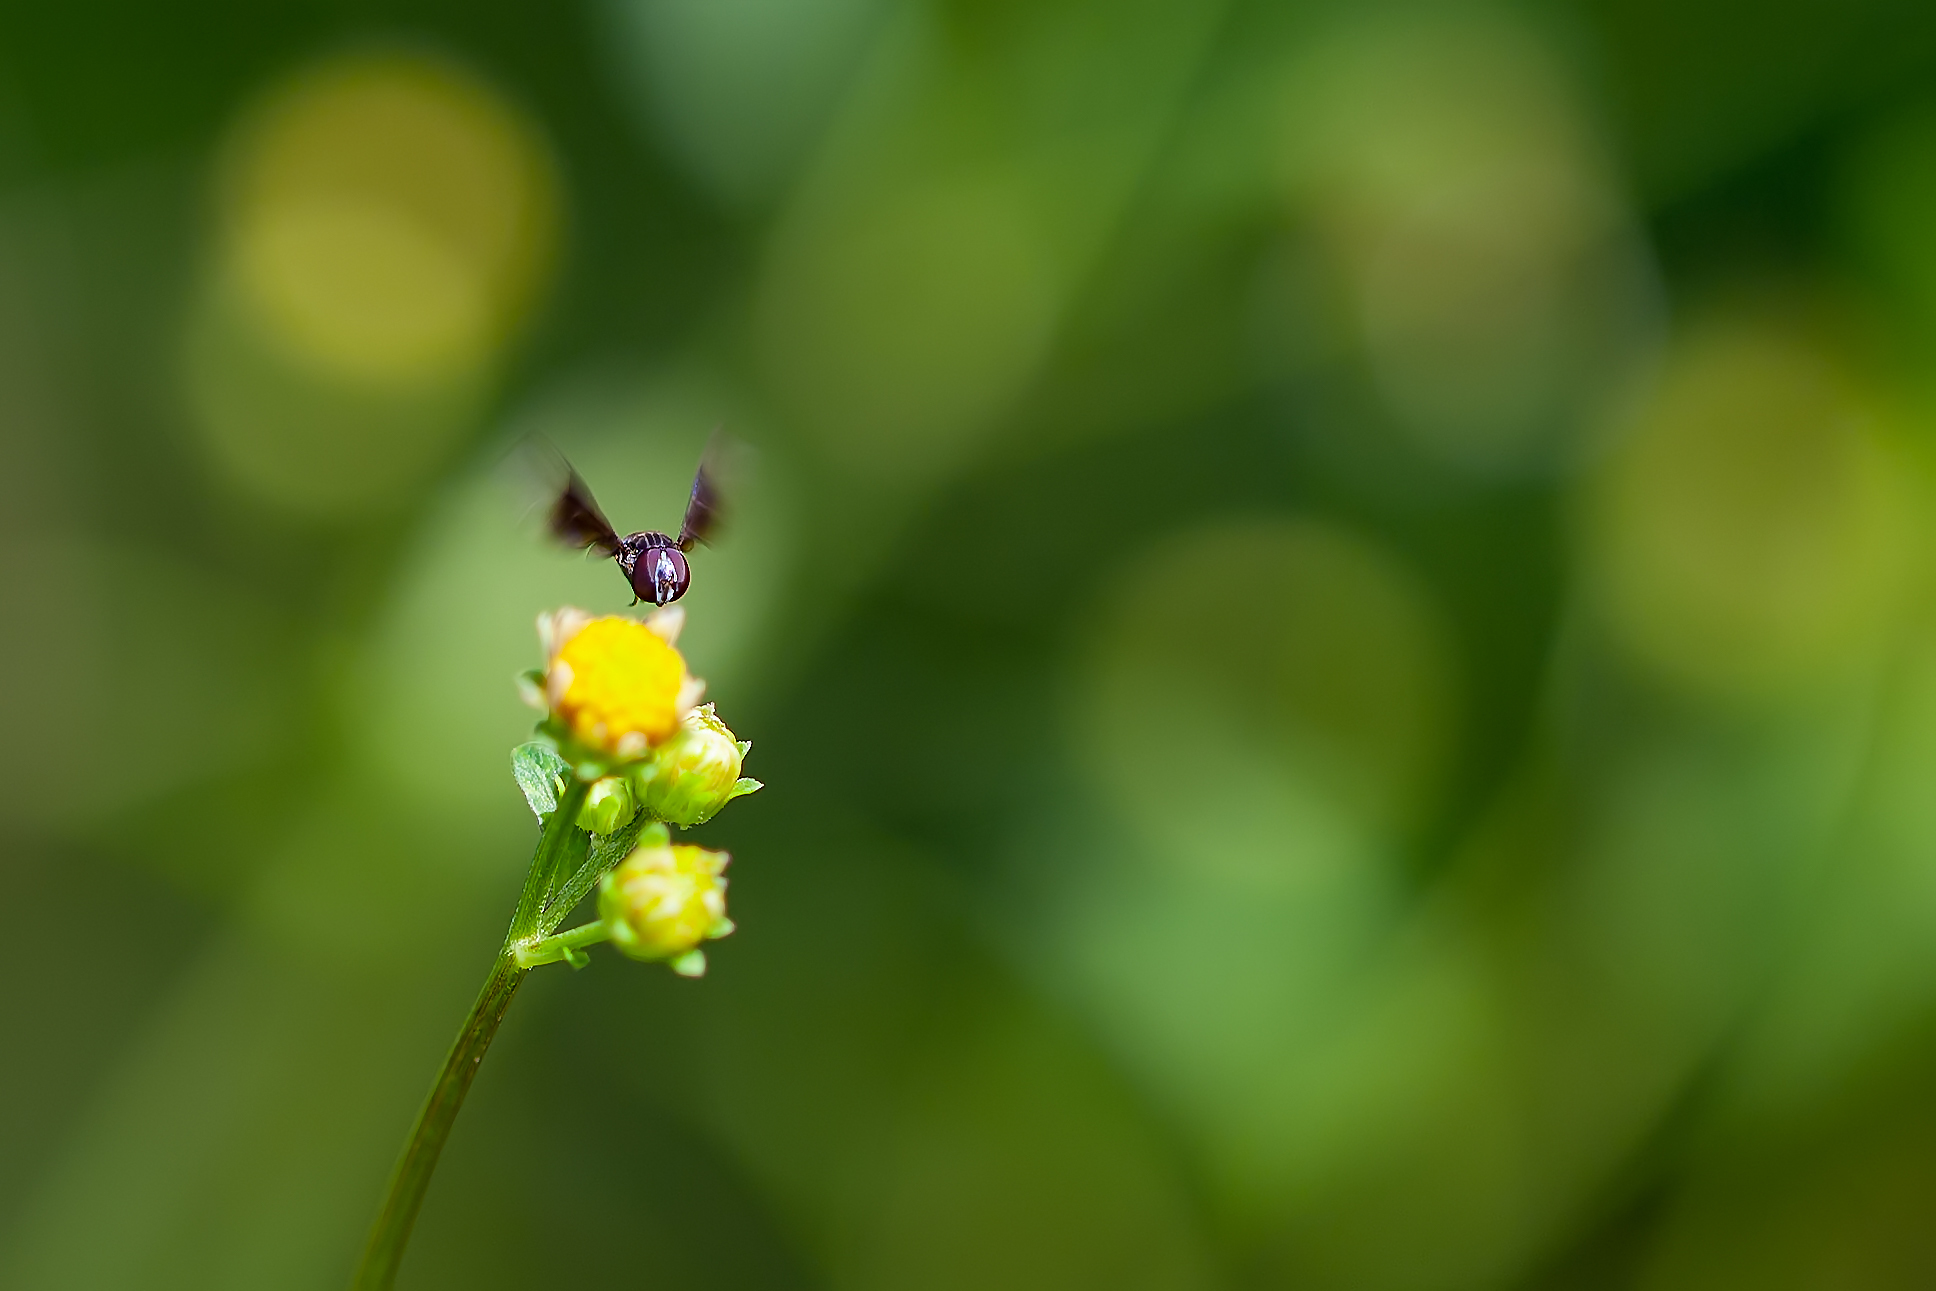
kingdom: Animalia
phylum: Arthropoda
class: Insecta
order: Diptera
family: Syrphidae
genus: Ocyptamus
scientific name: Ocyptamus dimidiatus
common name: Syrphid fly
